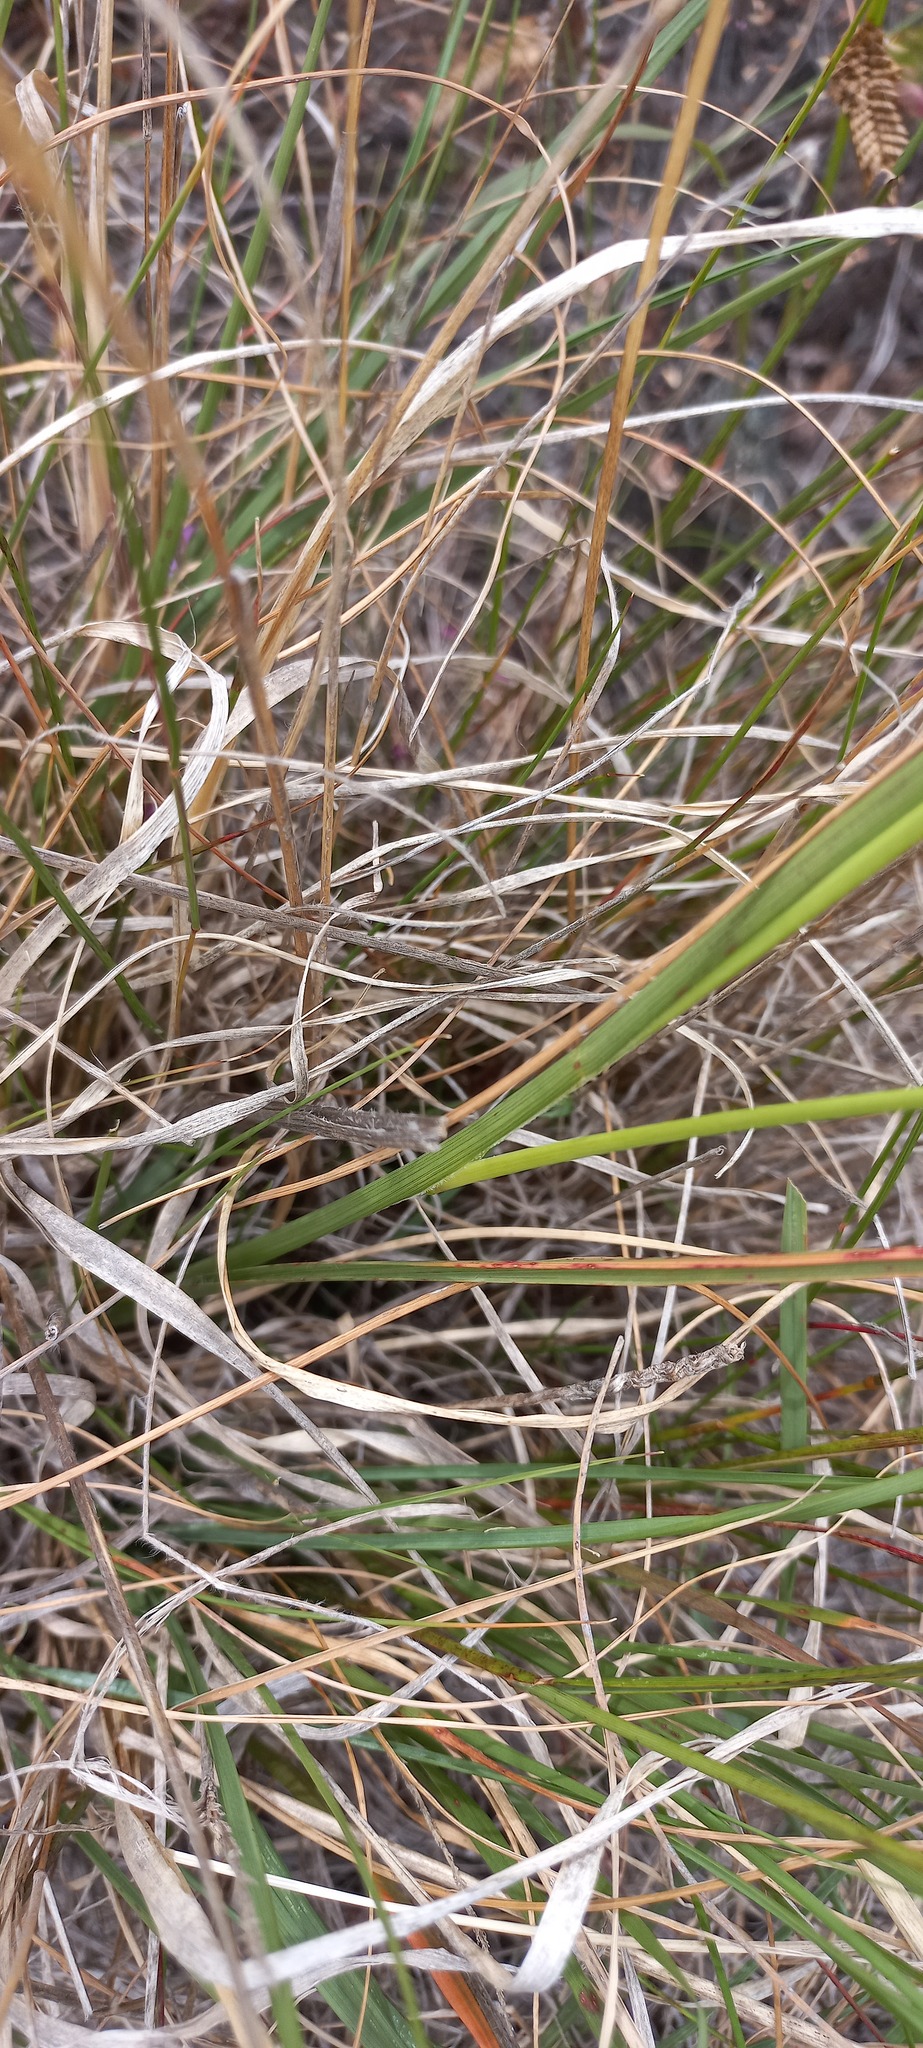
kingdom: Plantae
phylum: Tracheophyta
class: Liliopsida
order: Poales
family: Poaceae
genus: Sporobolus
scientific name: Sporobolus africanus
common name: African dropseed
